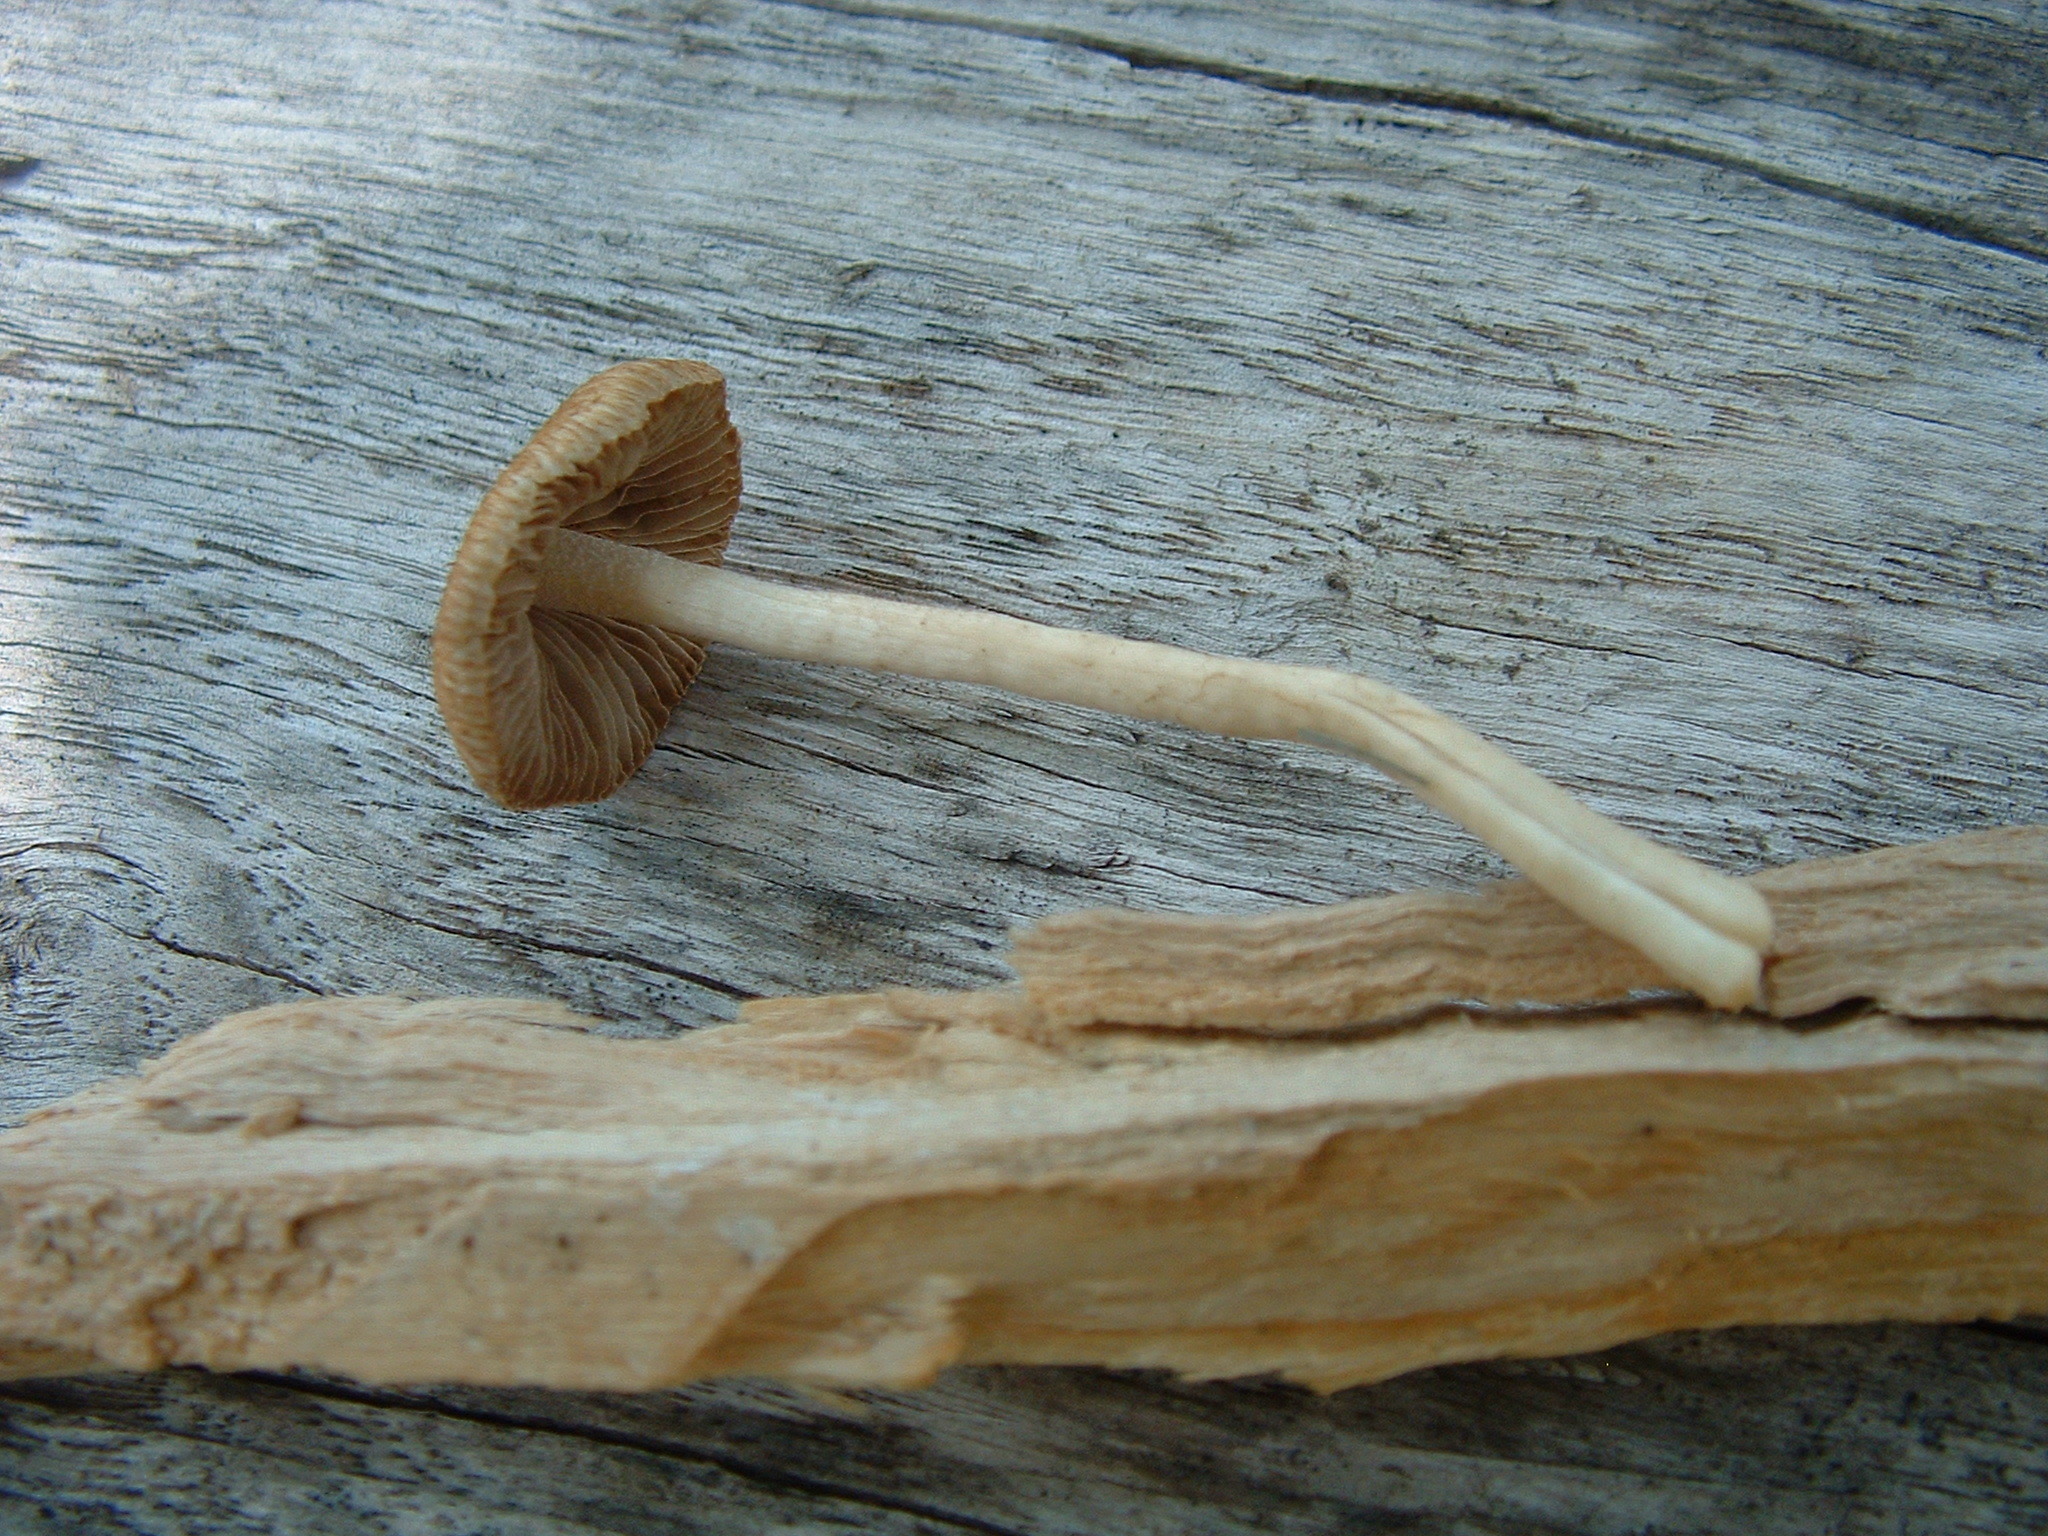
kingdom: Fungi
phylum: Basidiomycota
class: Agaricomycetes
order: Agaricales
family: Strophariaceae
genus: Agrocybe
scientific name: Agrocybe pediades
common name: Common fieldcap
